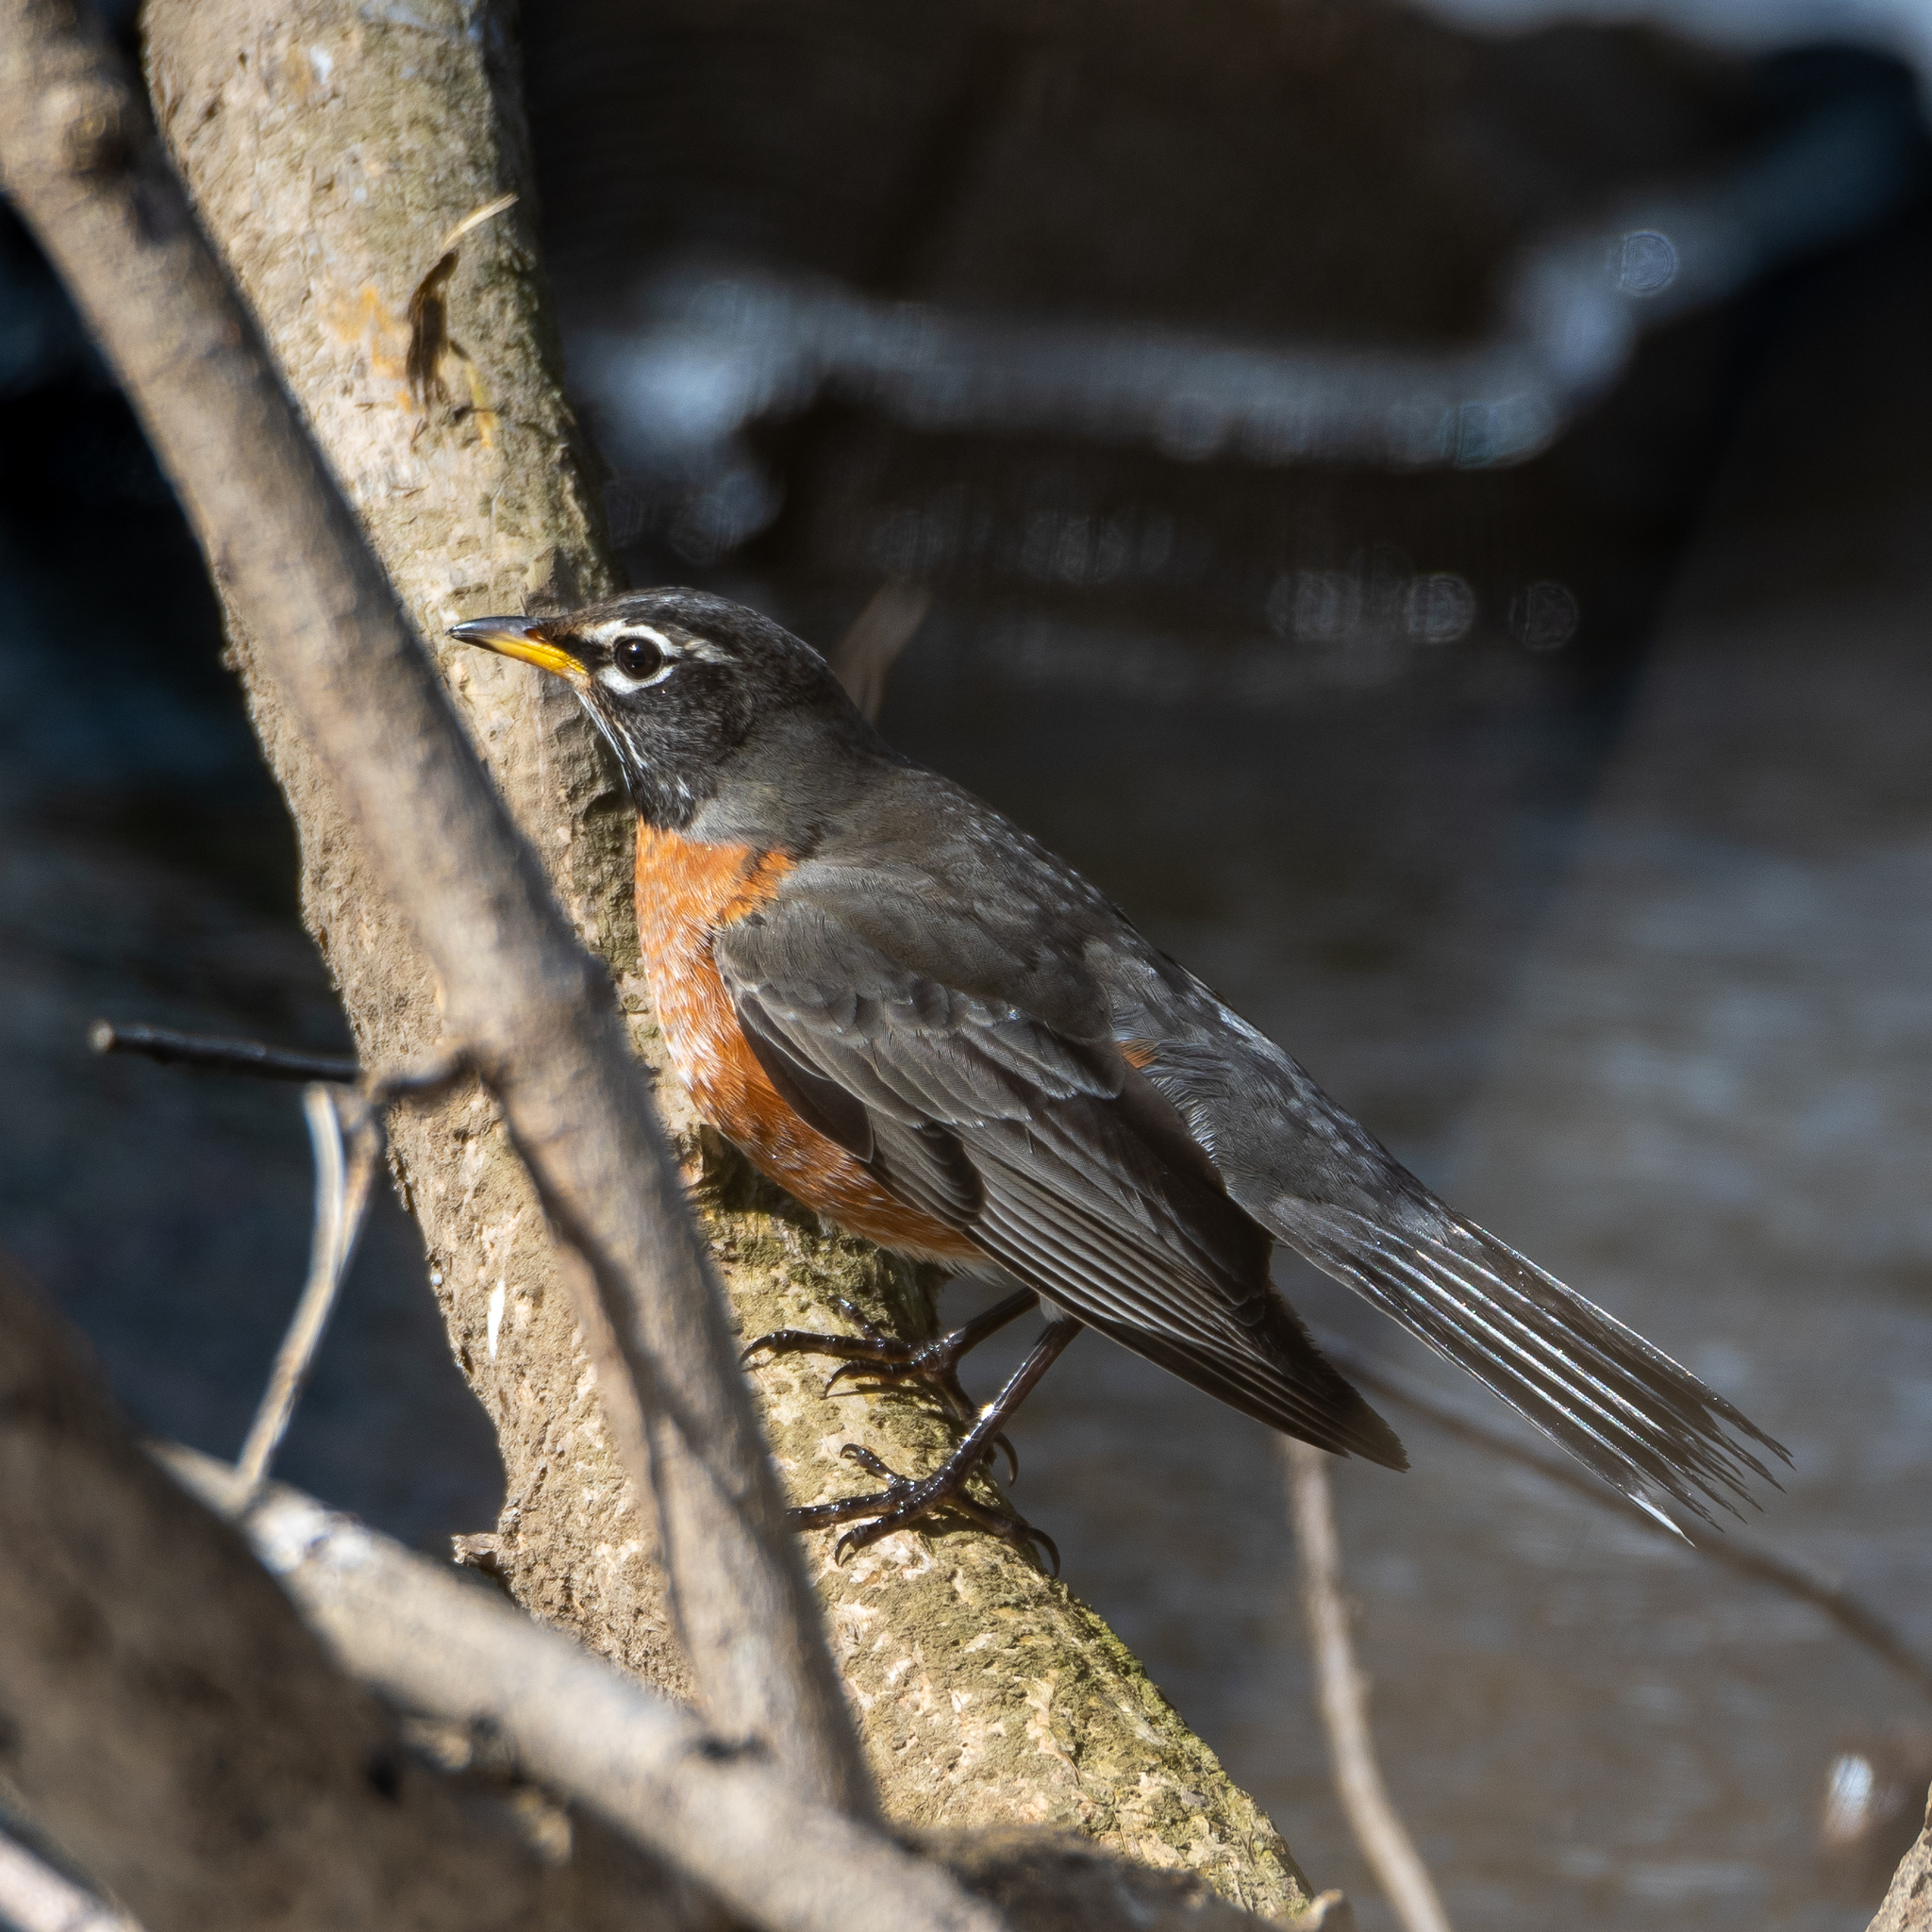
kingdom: Animalia
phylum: Chordata
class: Aves
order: Passeriformes
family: Turdidae
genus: Turdus
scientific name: Turdus migratorius
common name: American robin
